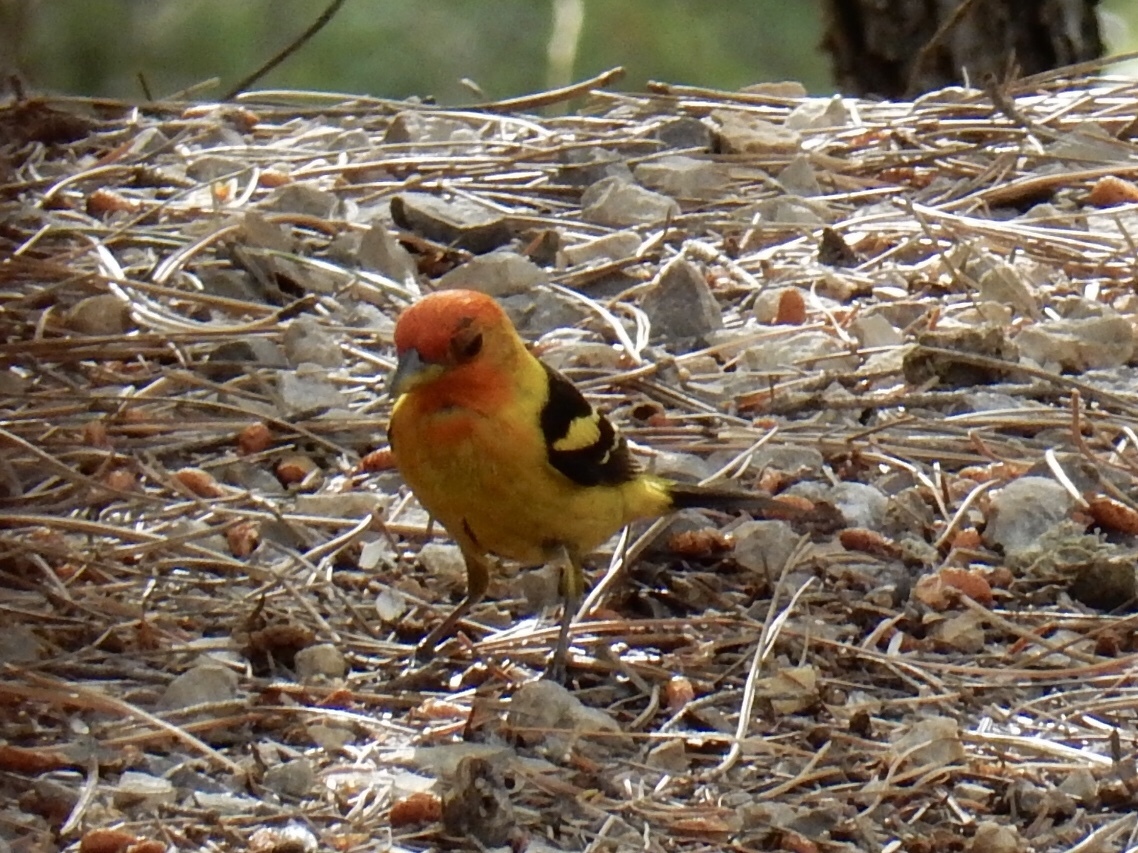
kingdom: Animalia
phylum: Chordata
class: Aves
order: Passeriformes
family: Cardinalidae
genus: Piranga
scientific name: Piranga ludoviciana
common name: Western tanager
